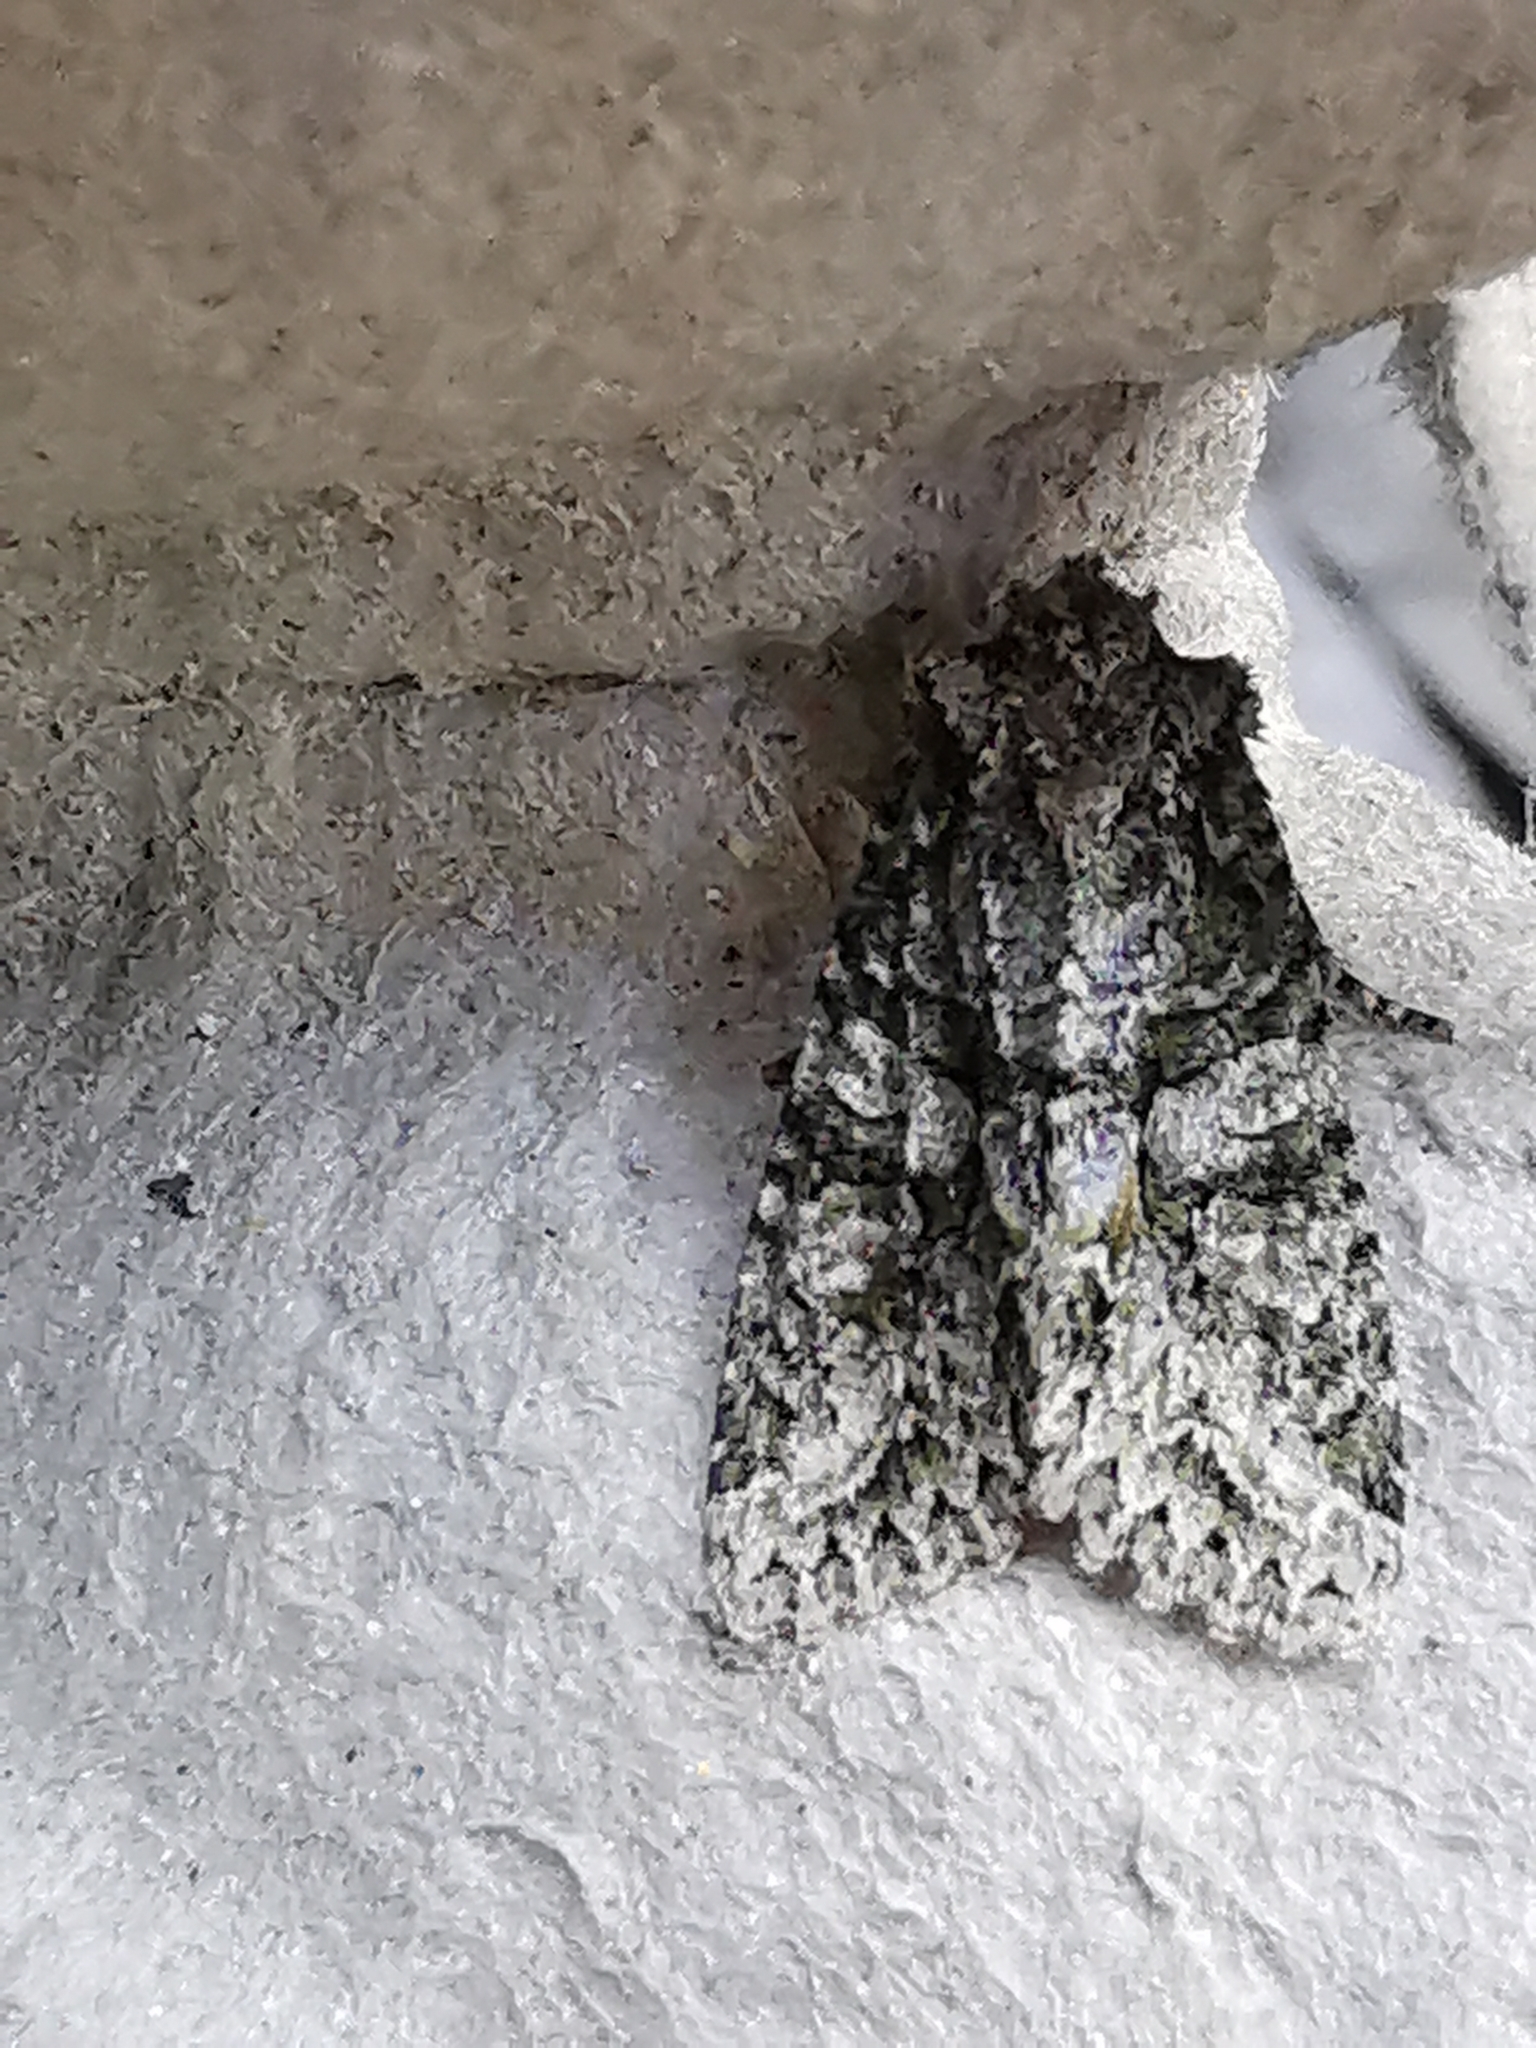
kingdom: Animalia
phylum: Arthropoda
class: Insecta
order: Lepidoptera
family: Noctuidae
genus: Dryobotodes
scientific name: Dryobotodes eremita
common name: Brindled green
